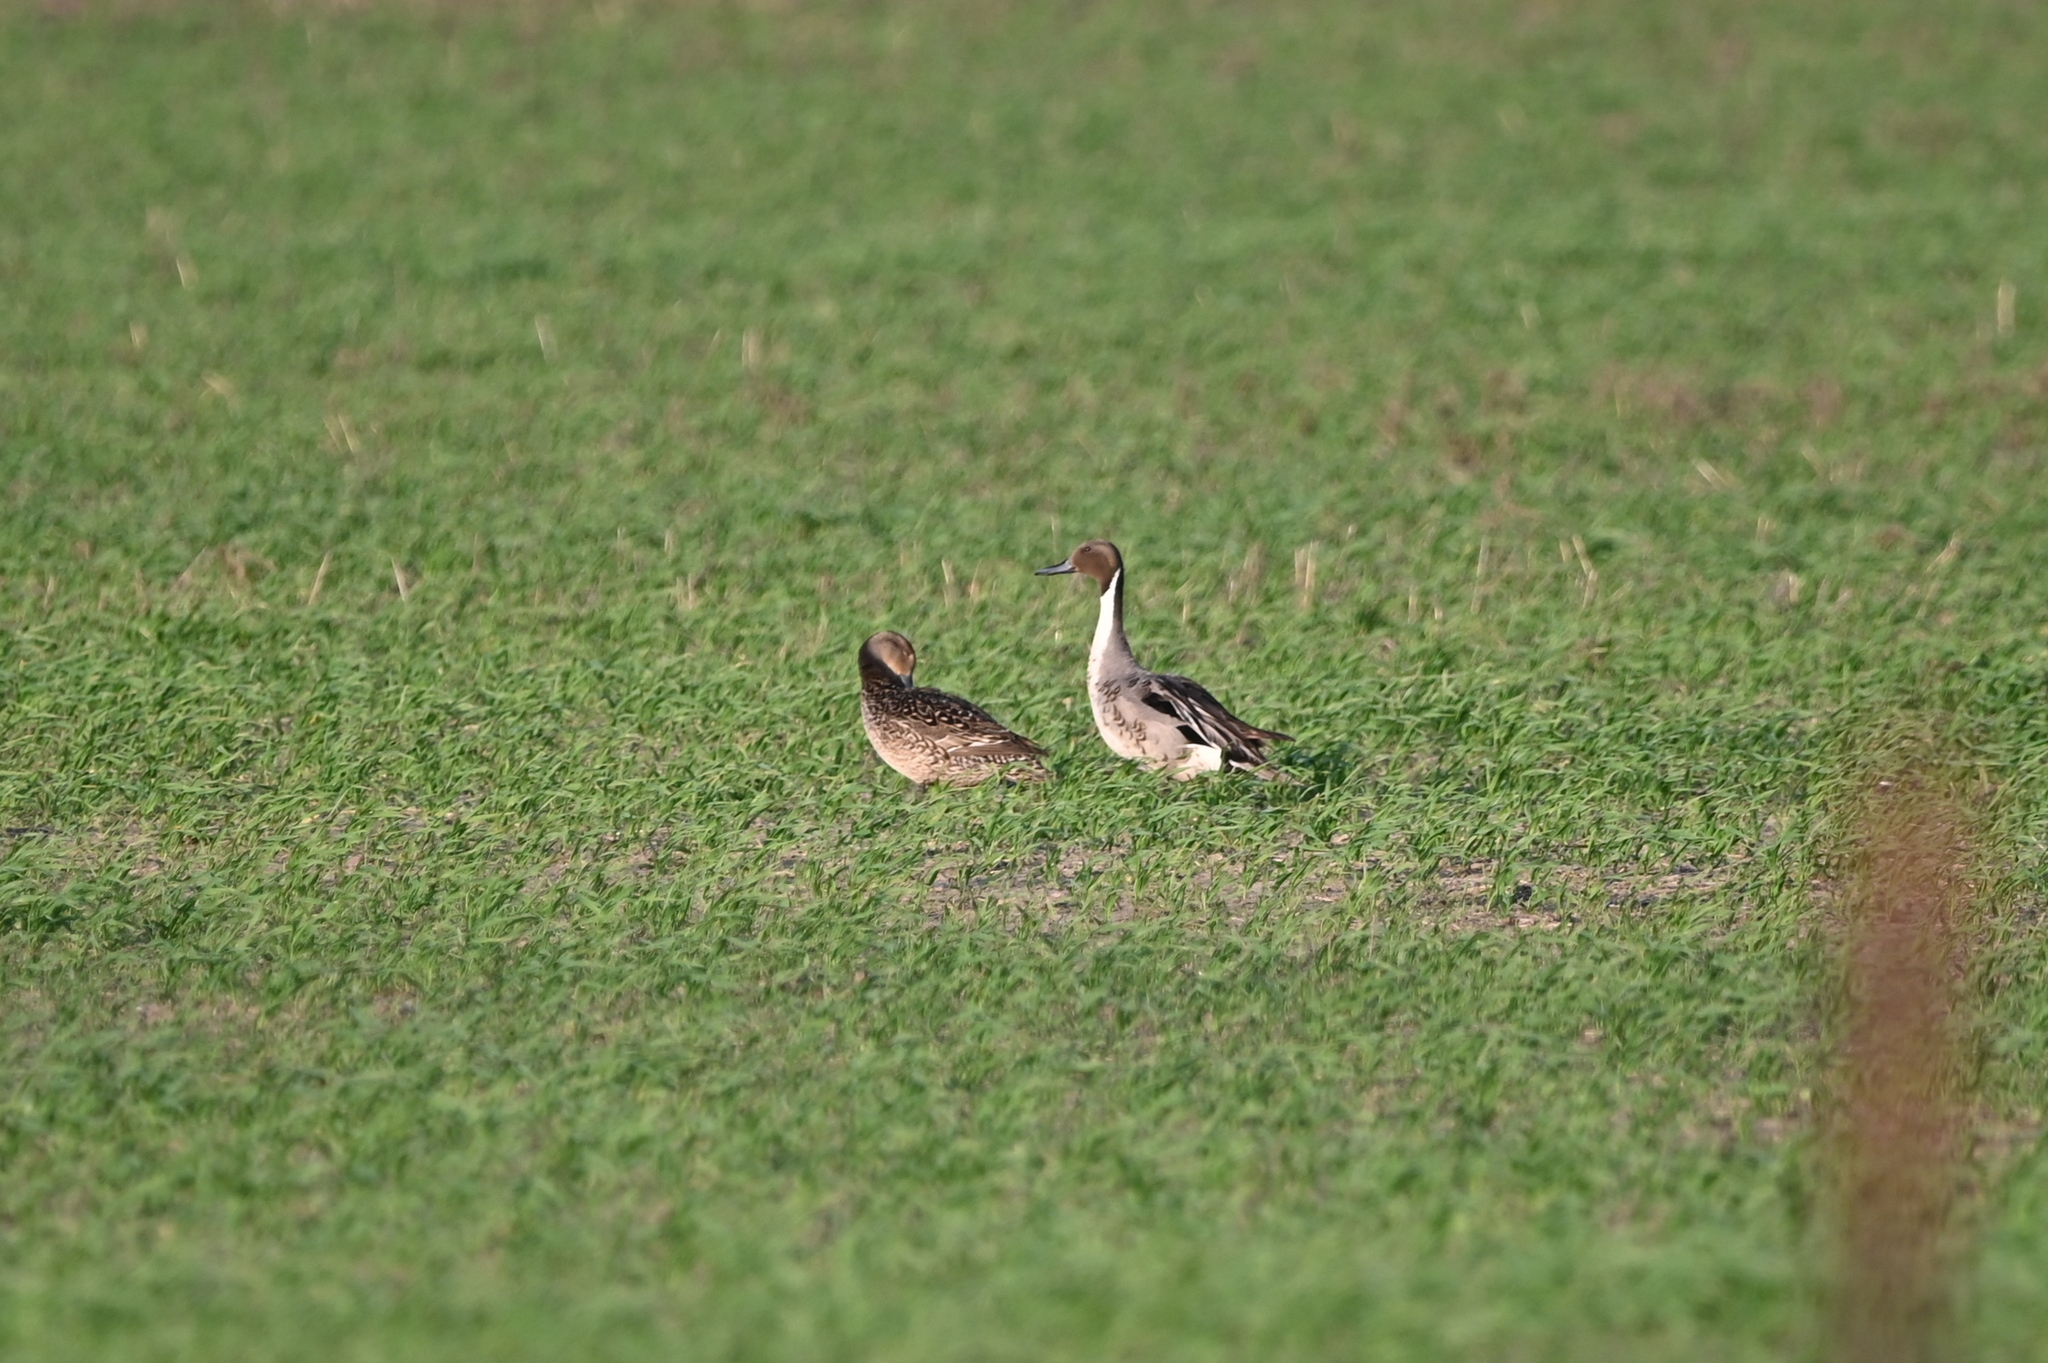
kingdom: Animalia
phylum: Chordata
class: Aves
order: Anseriformes
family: Anatidae
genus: Anas
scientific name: Anas acuta
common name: Northern pintail
